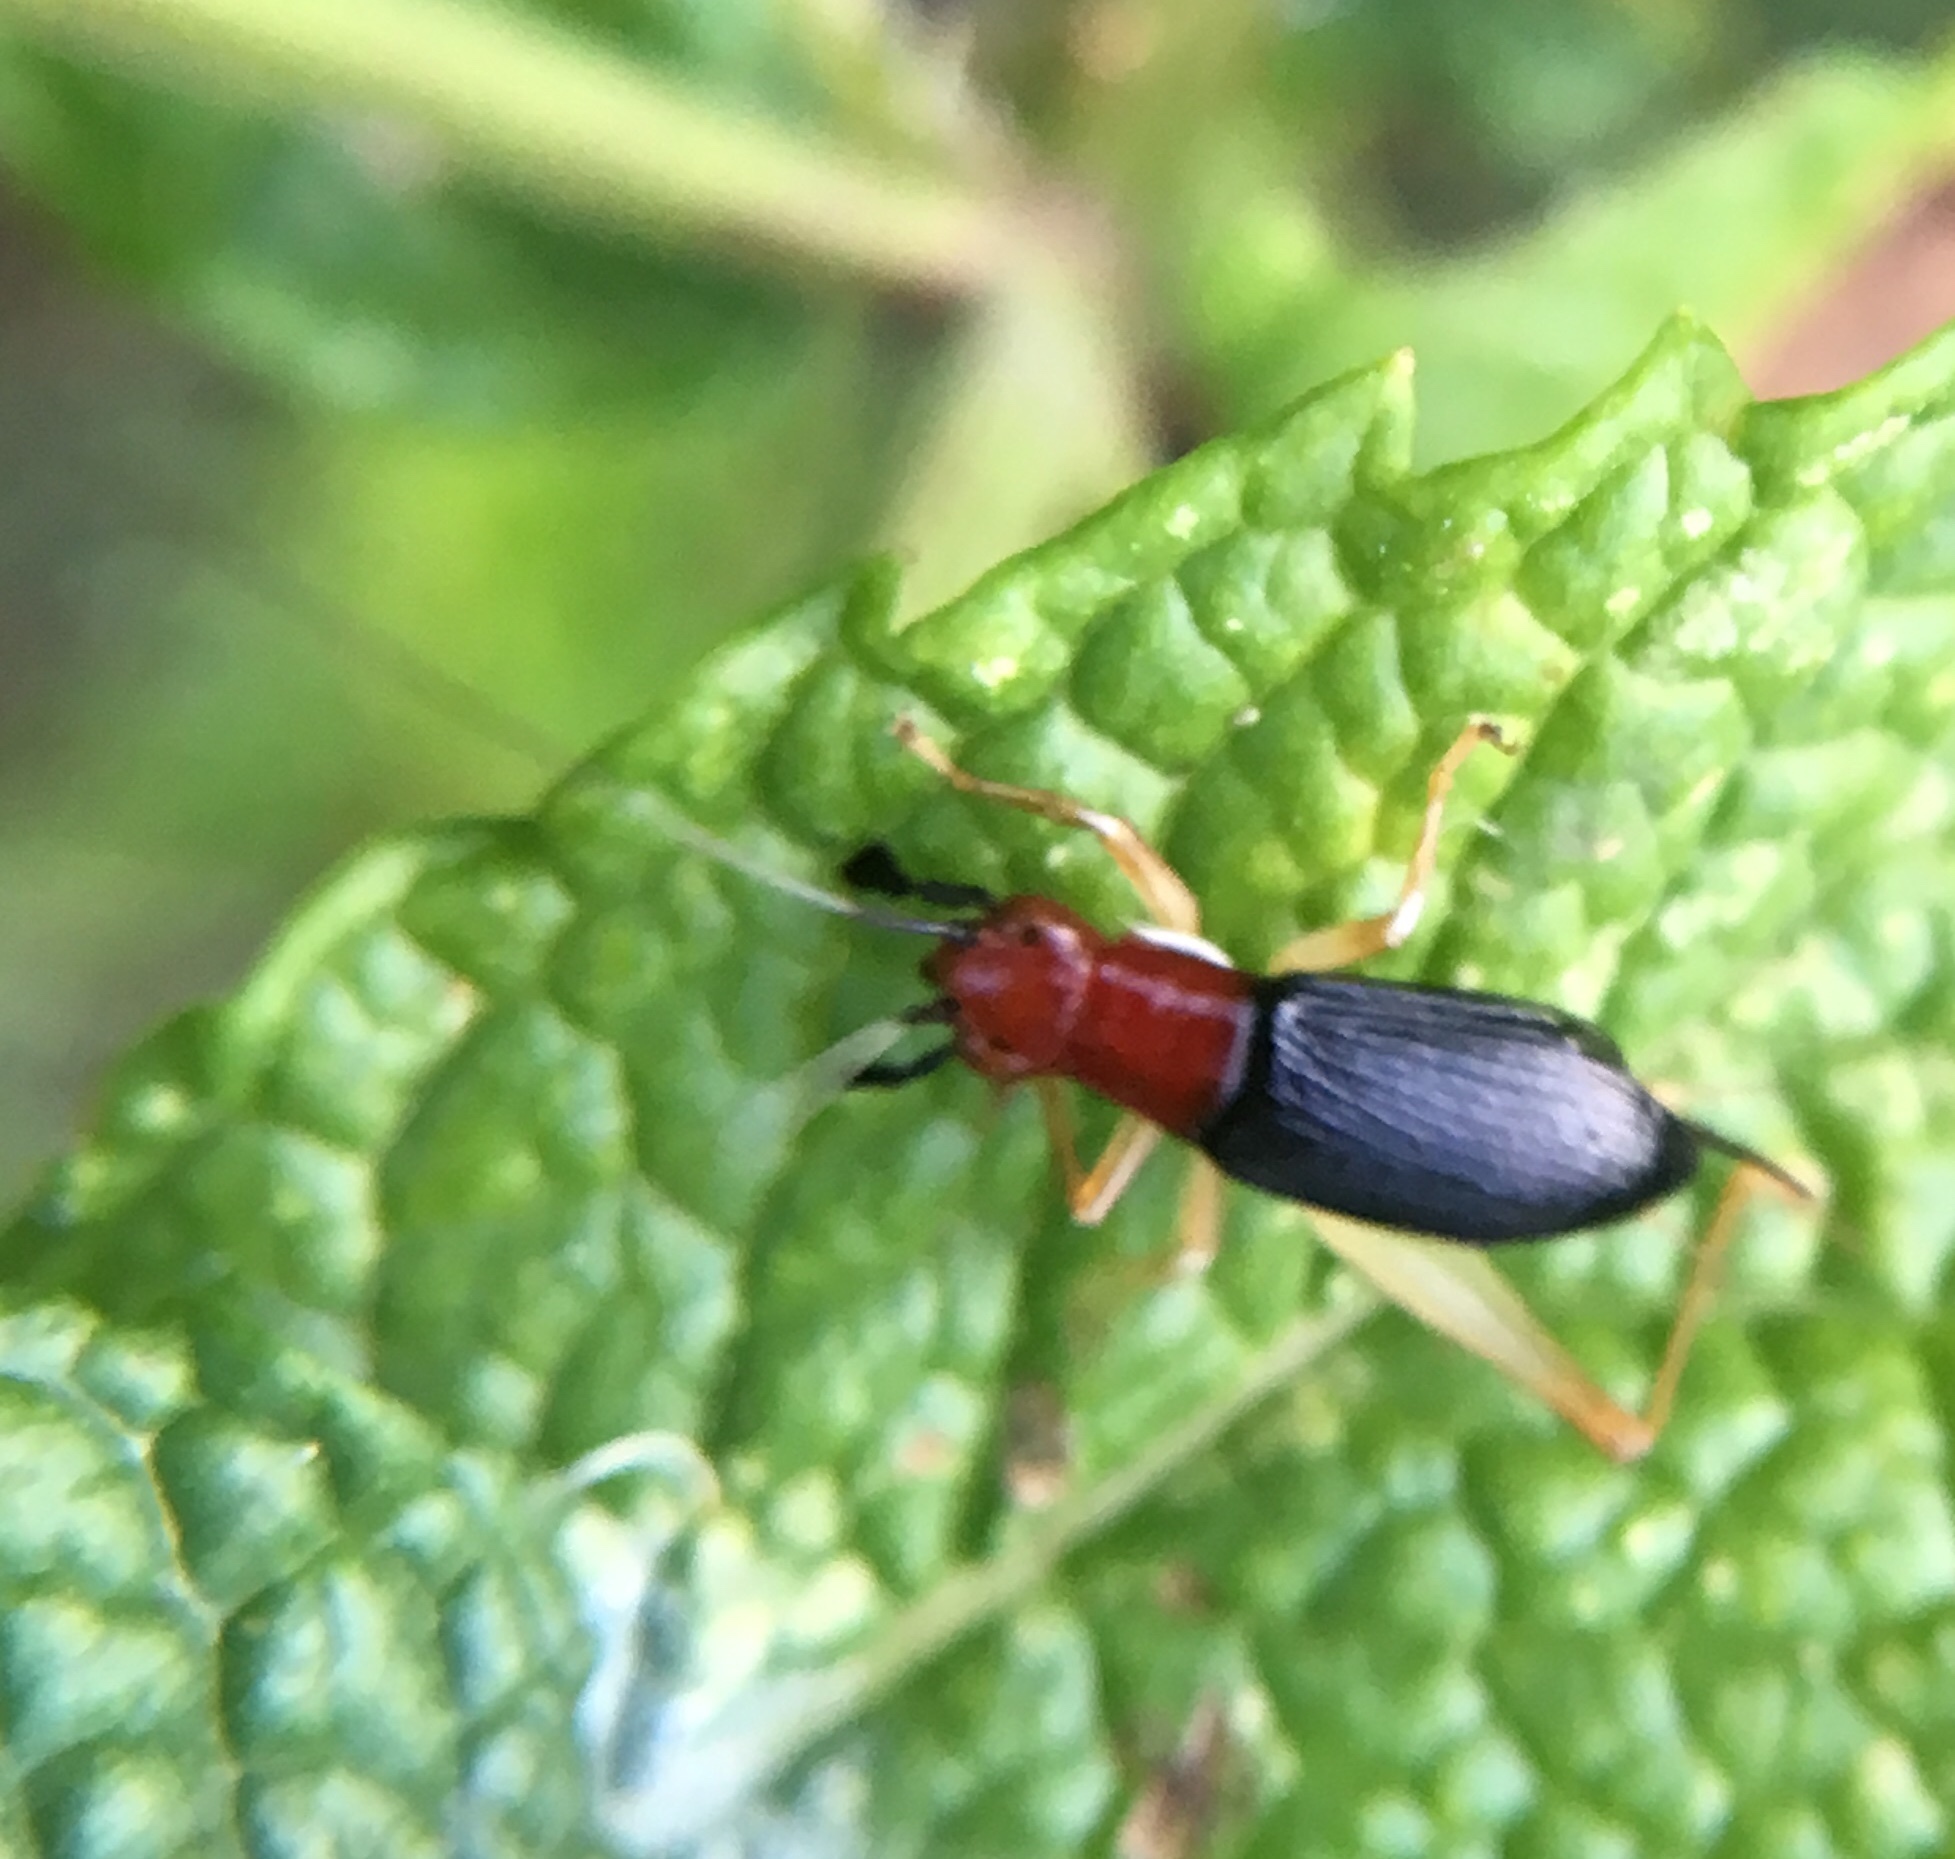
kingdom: Animalia
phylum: Arthropoda
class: Insecta
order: Orthoptera
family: Trigonidiidae
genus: Phyllopalpus
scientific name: Phyllopalpus pulchellus
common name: Handsome trig
